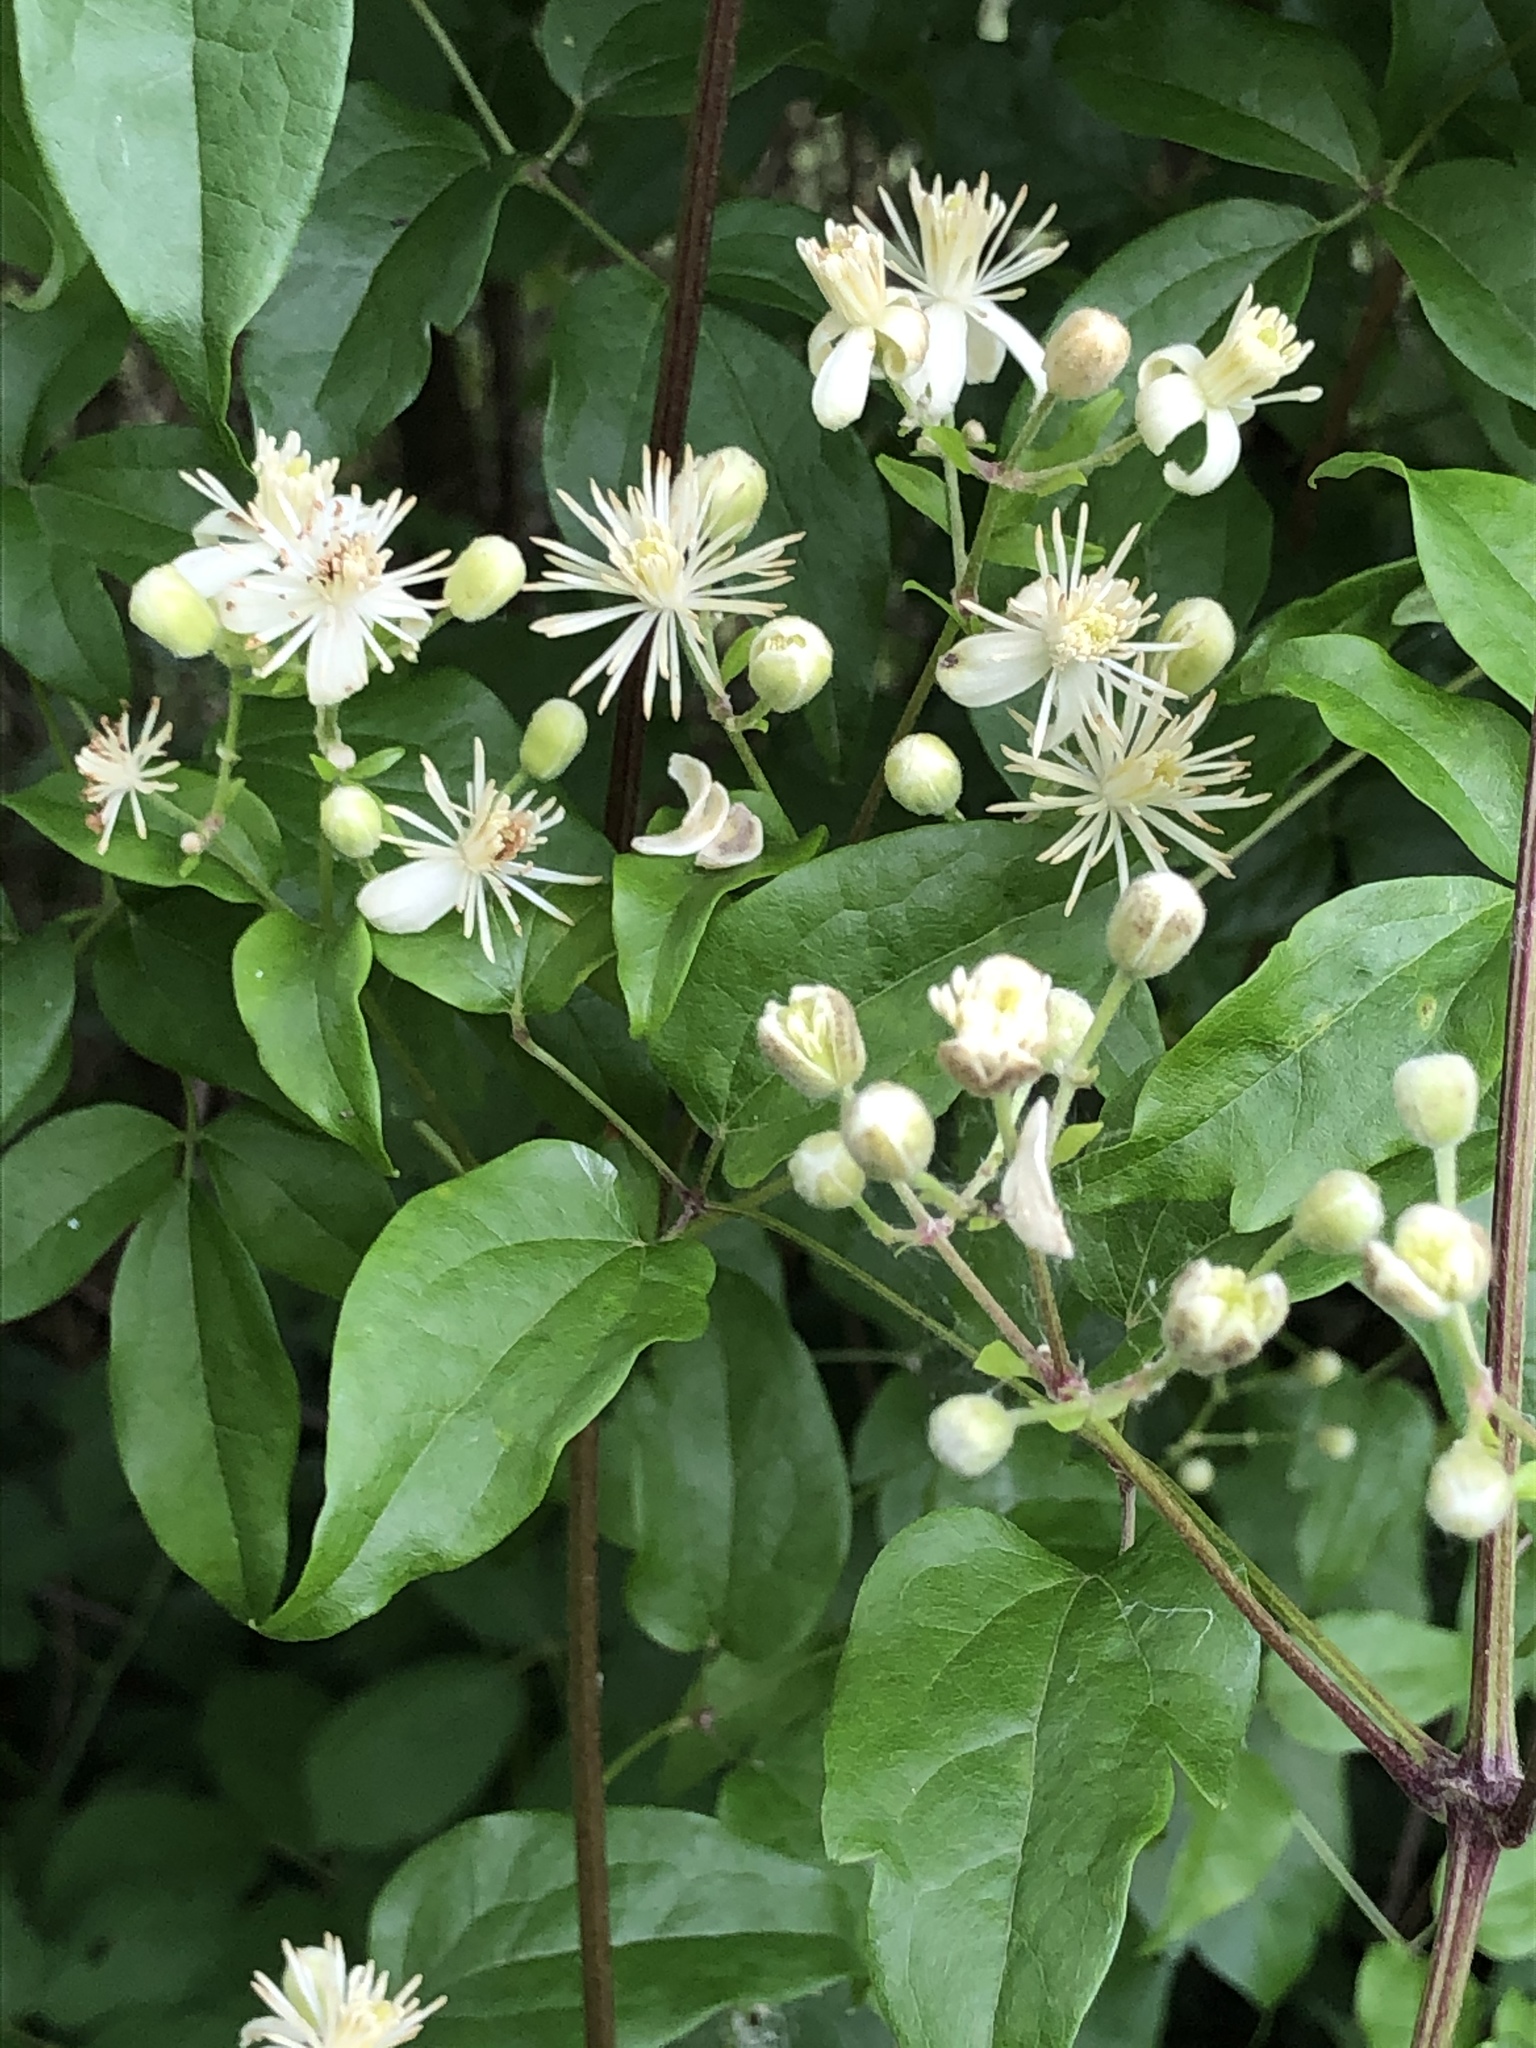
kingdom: Plantae
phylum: Tracheophyta
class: Magnoliopsida
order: Ranunculales
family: Ranunculaceae
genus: Clematis
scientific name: Clematis vitalba
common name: Evergreen clematis
